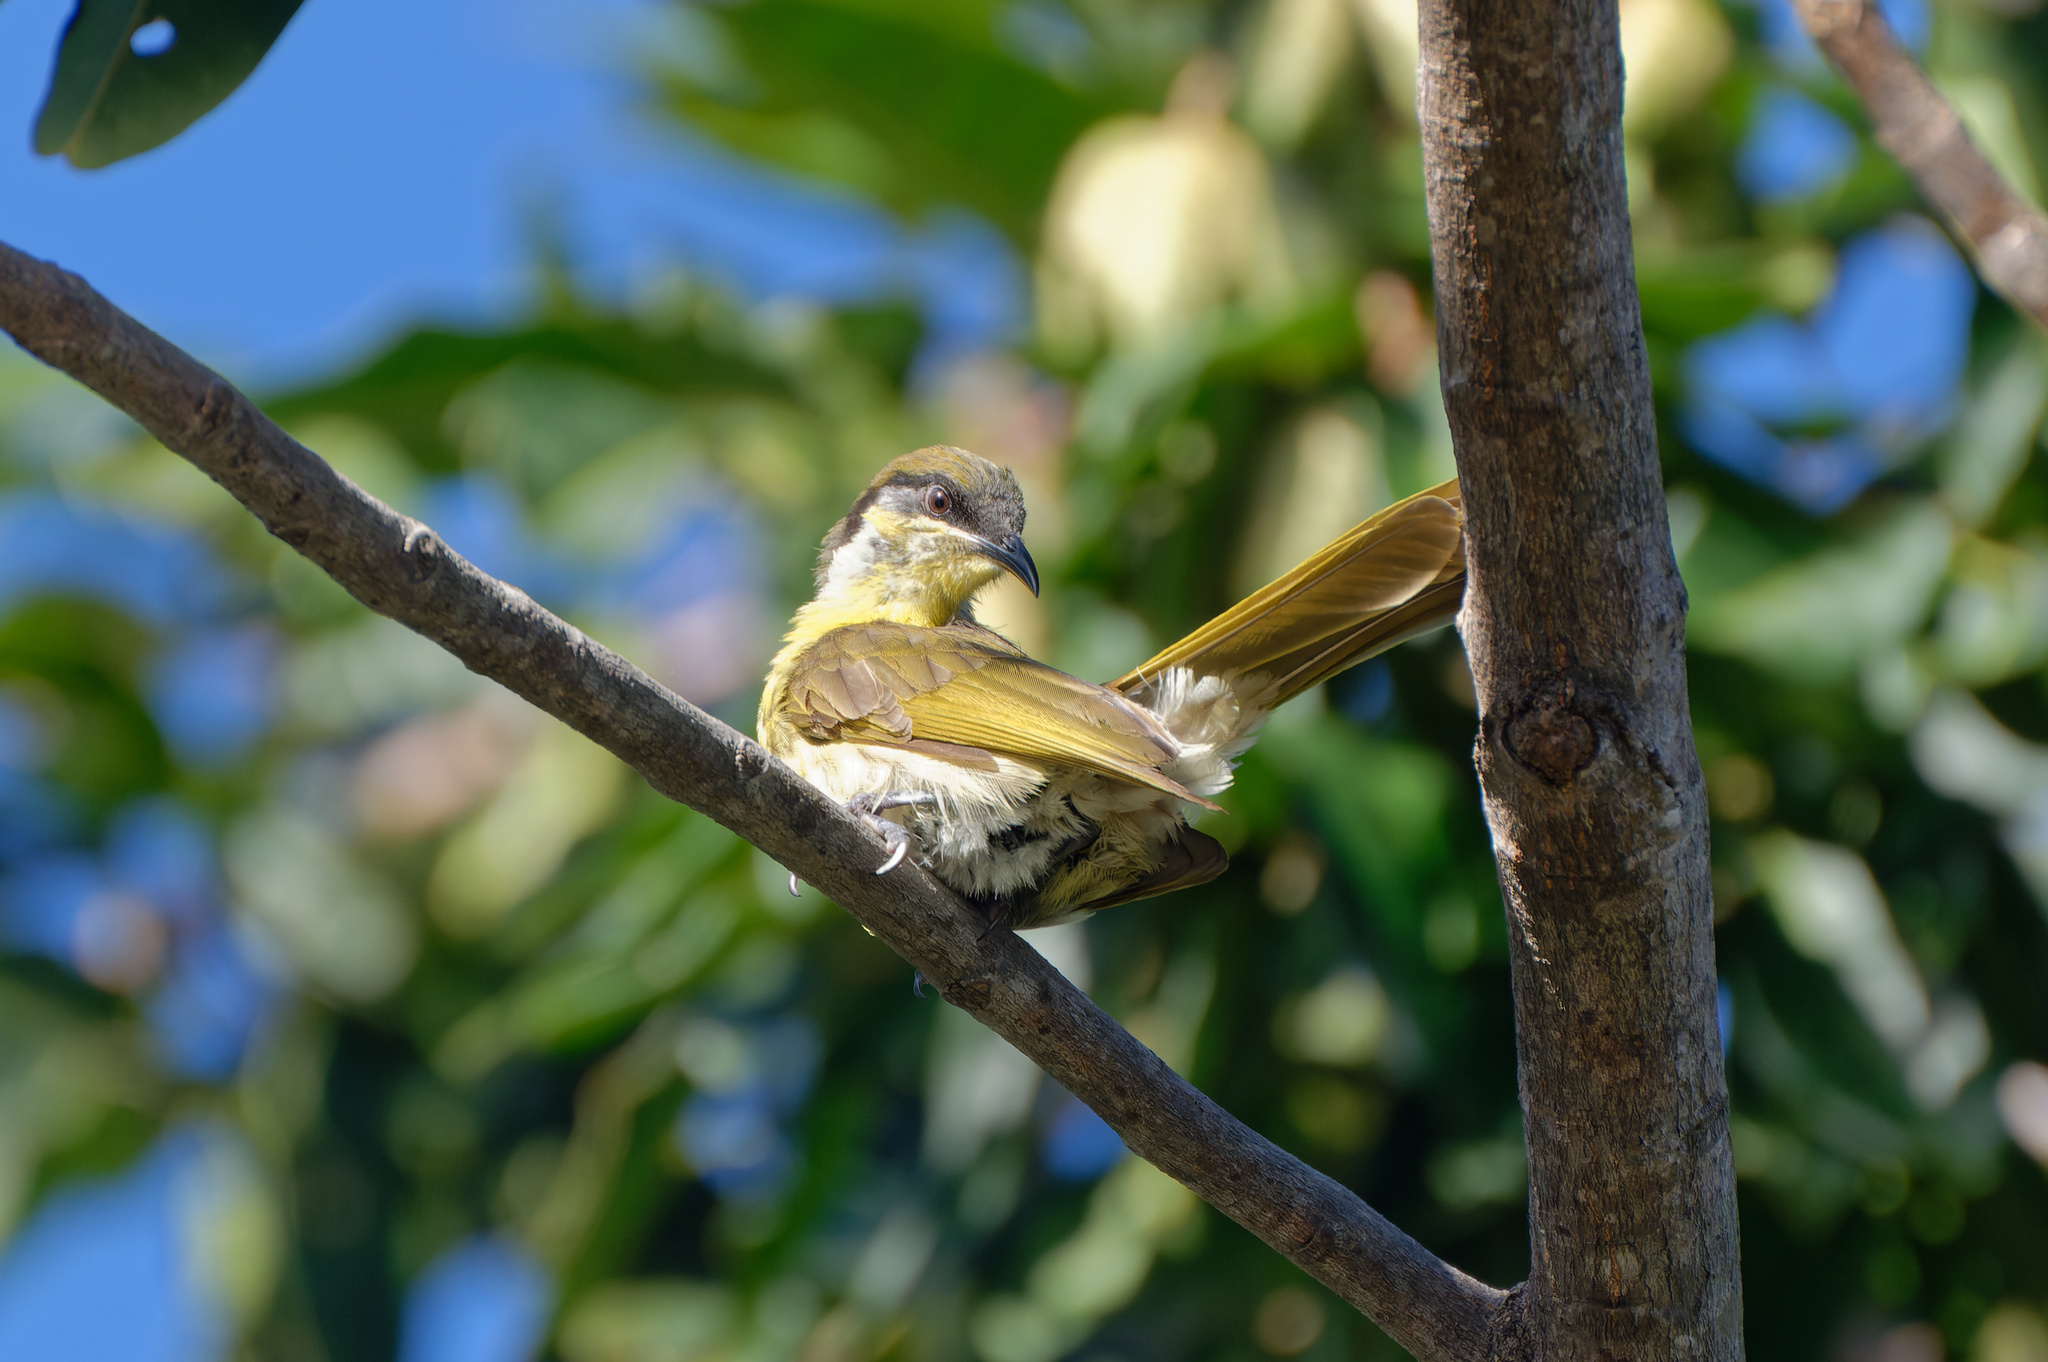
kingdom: Animalia
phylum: Chordata
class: Aves
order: Passeriformes
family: Meliphagidae
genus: Gavicalis
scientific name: Gavicalis versicolor
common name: Varied honeyeater
